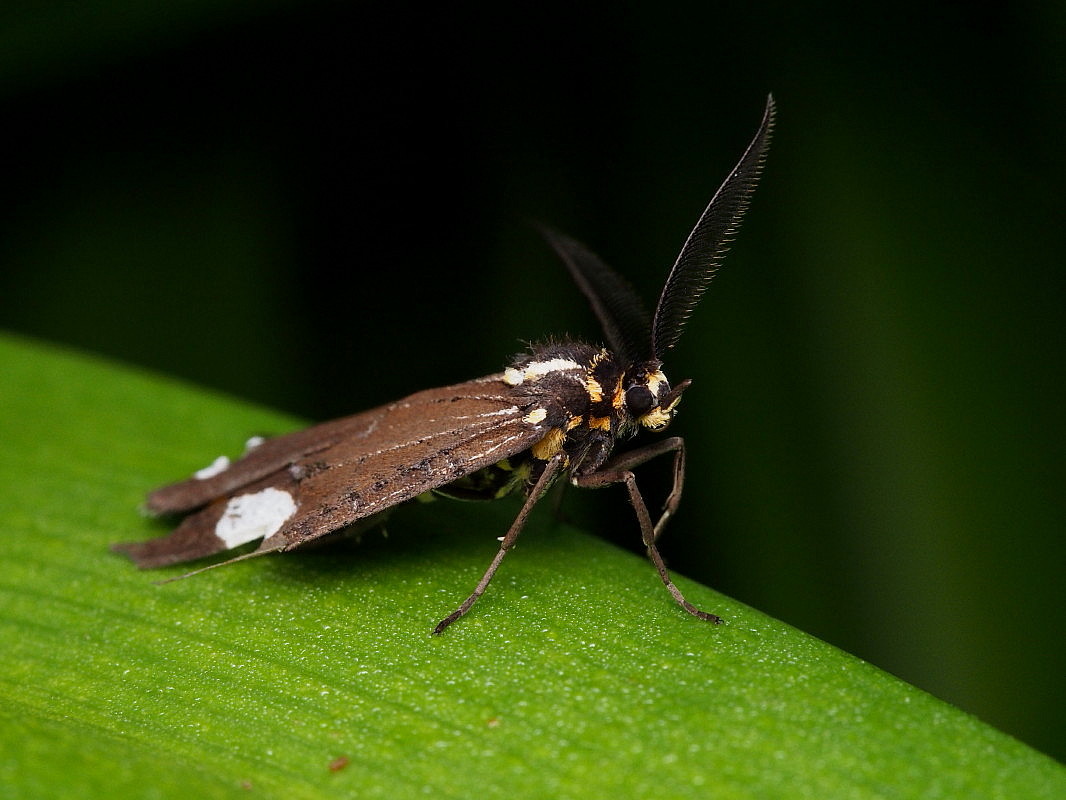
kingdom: Animalia
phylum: Arthropoda
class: Insecta
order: Lepidoptera
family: Erebidae
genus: Nyctemera
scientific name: Nyctemera annulatum
